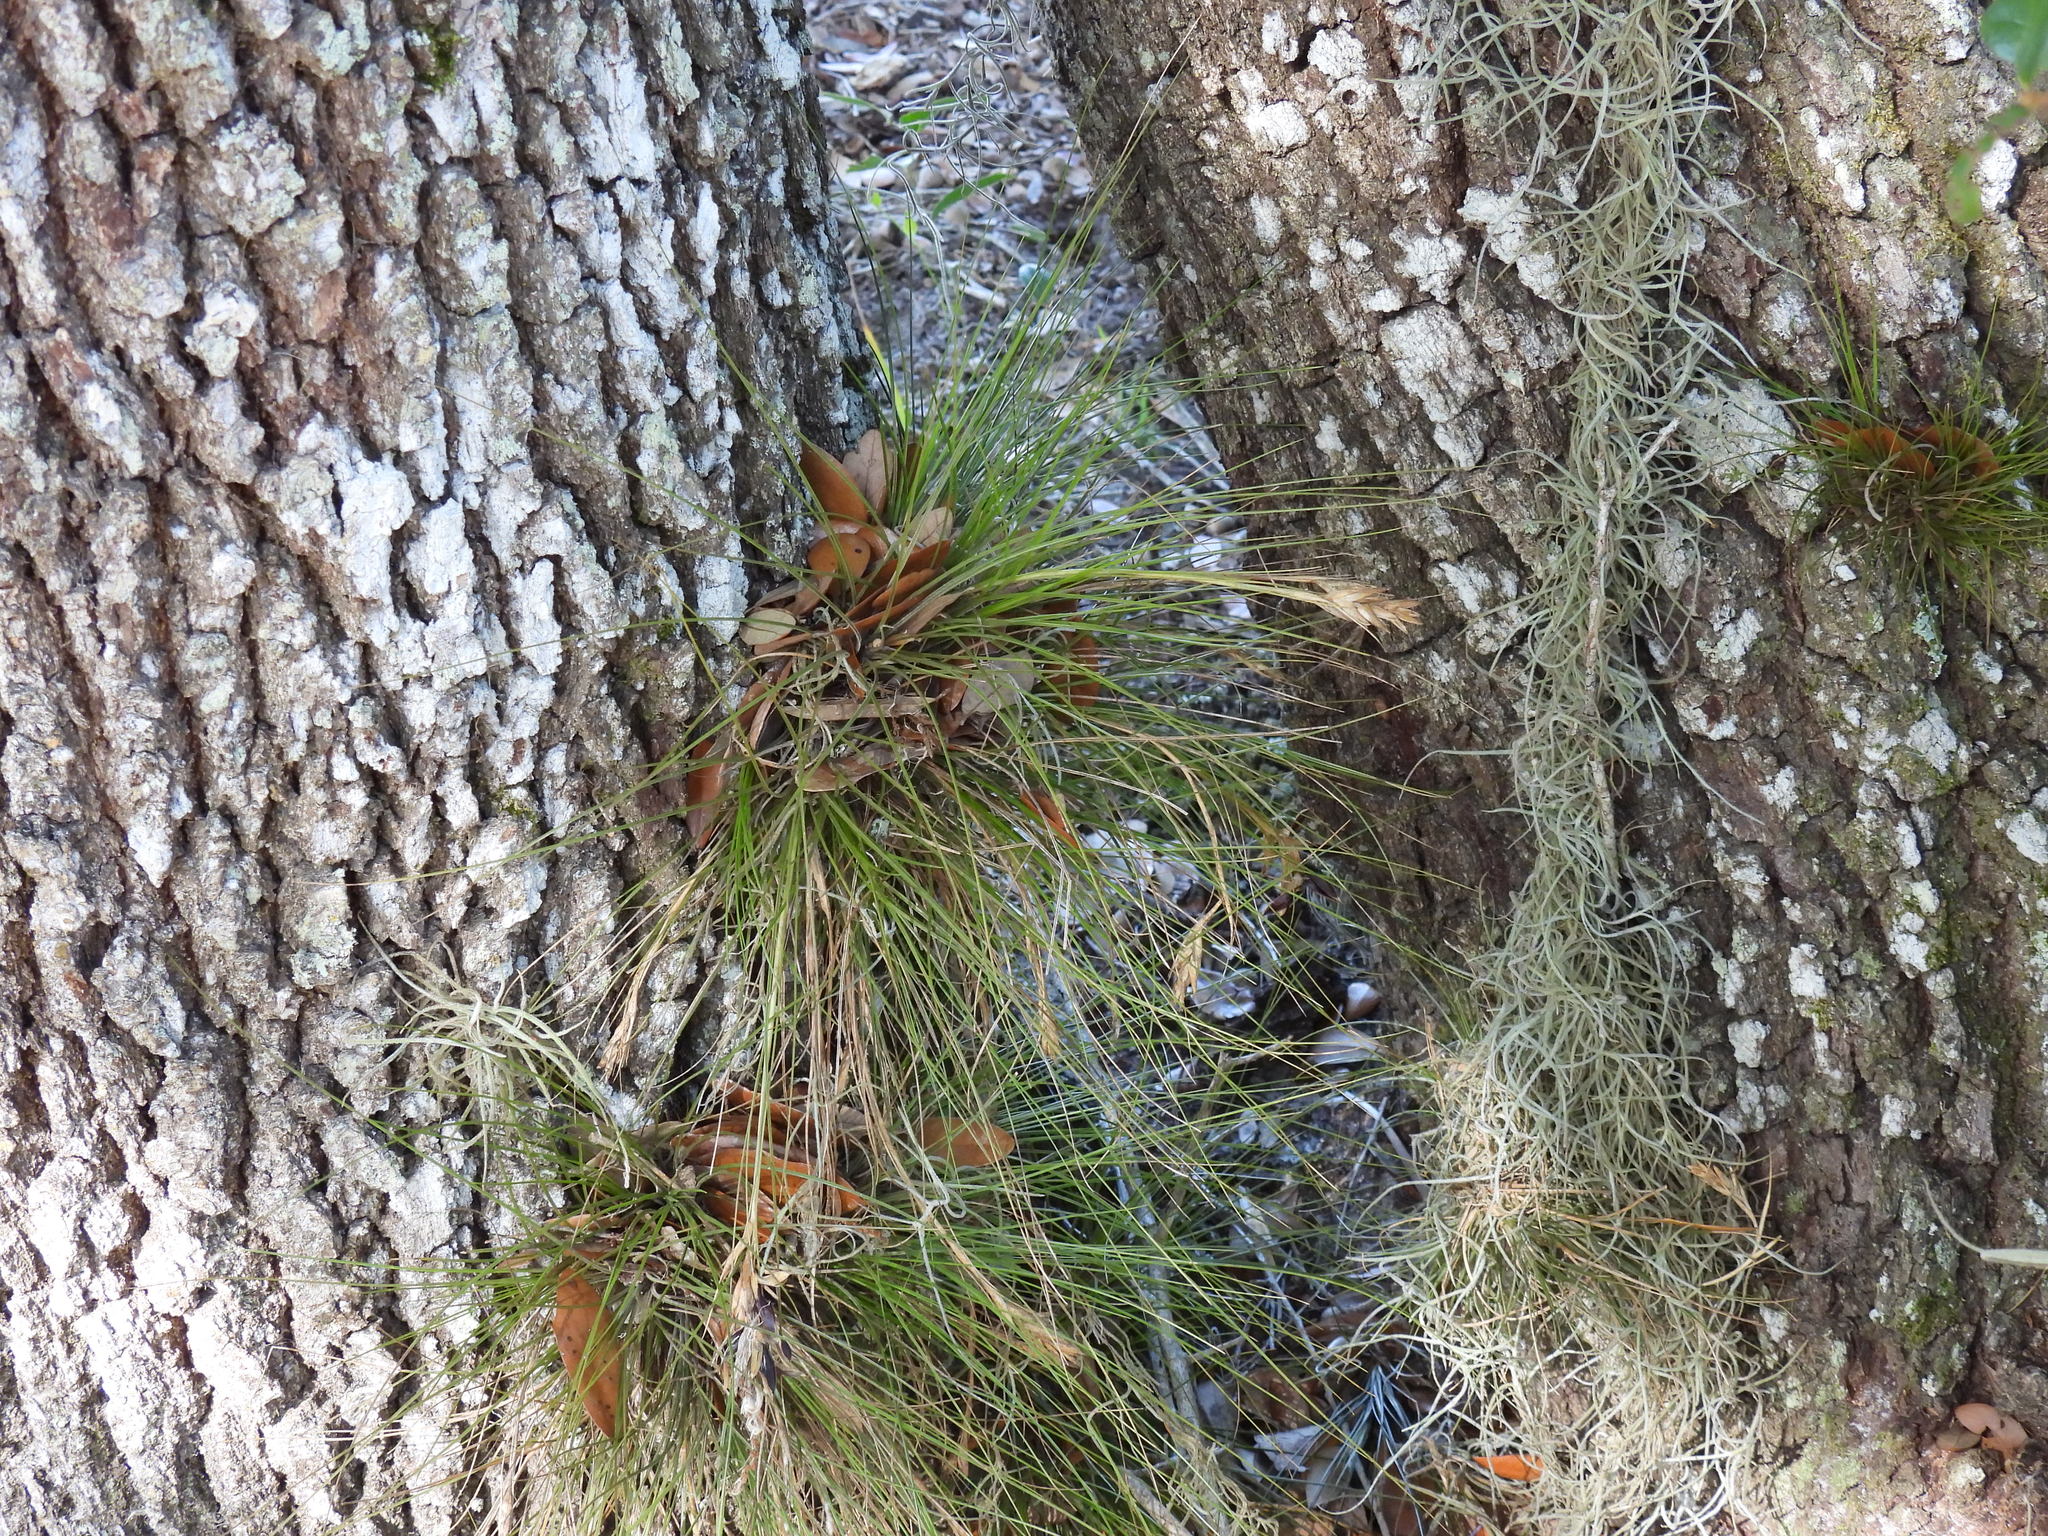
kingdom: Plantae
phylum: Tracheophyta
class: Liliopsida
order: Poales
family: Bromeliaceae
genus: Tillandsia
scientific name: Tillandsia setacea
